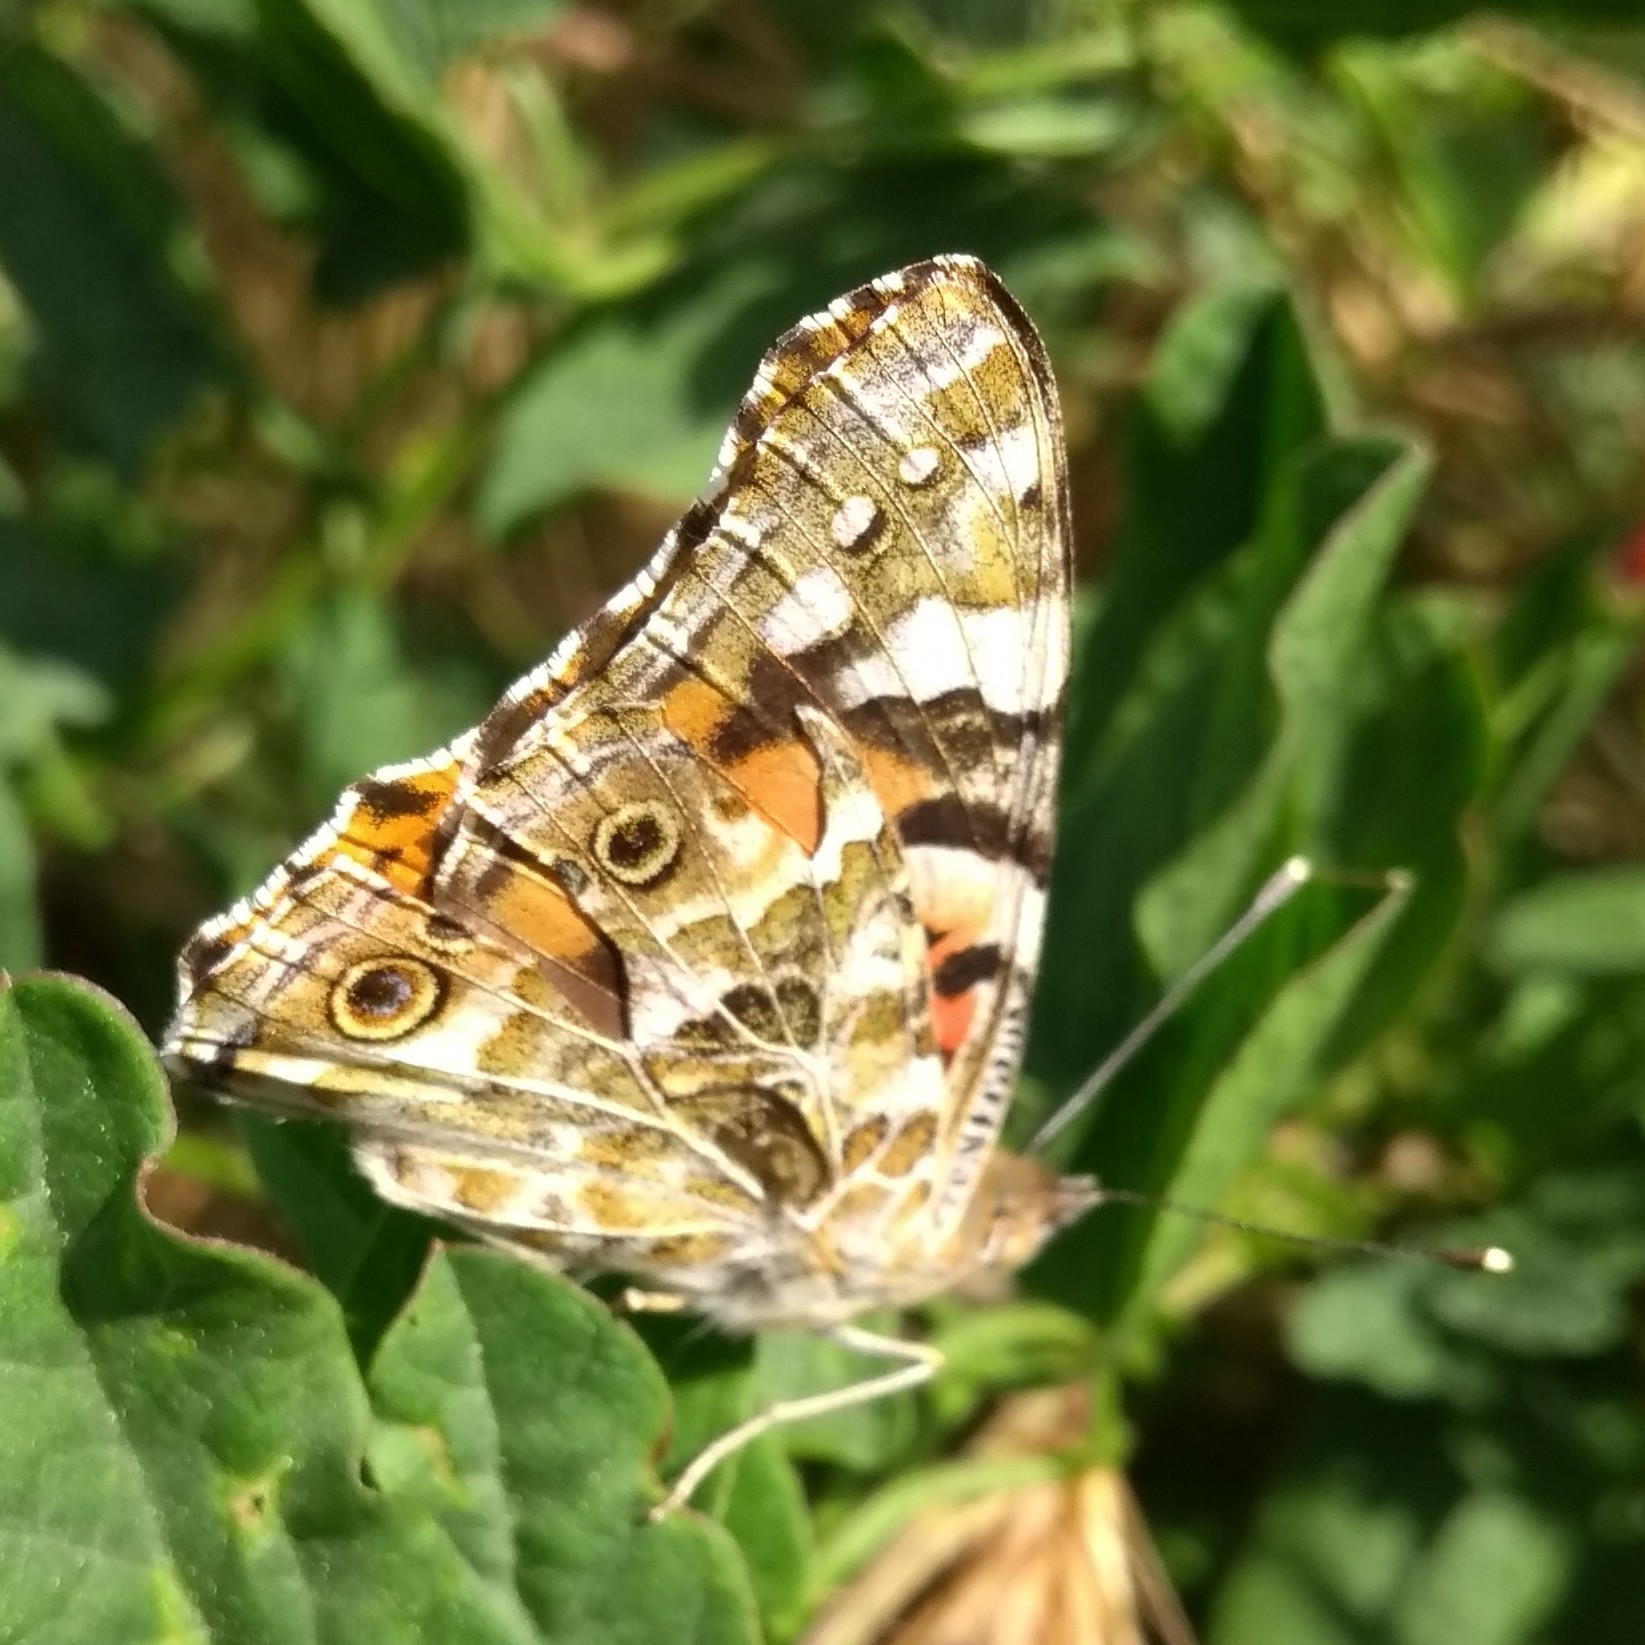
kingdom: Animalia
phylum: Arthropoda
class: Insecta
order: Lepidoptera
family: Nymphalidae
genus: Vanessa
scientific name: Vanessa cardui
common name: Painted lady
